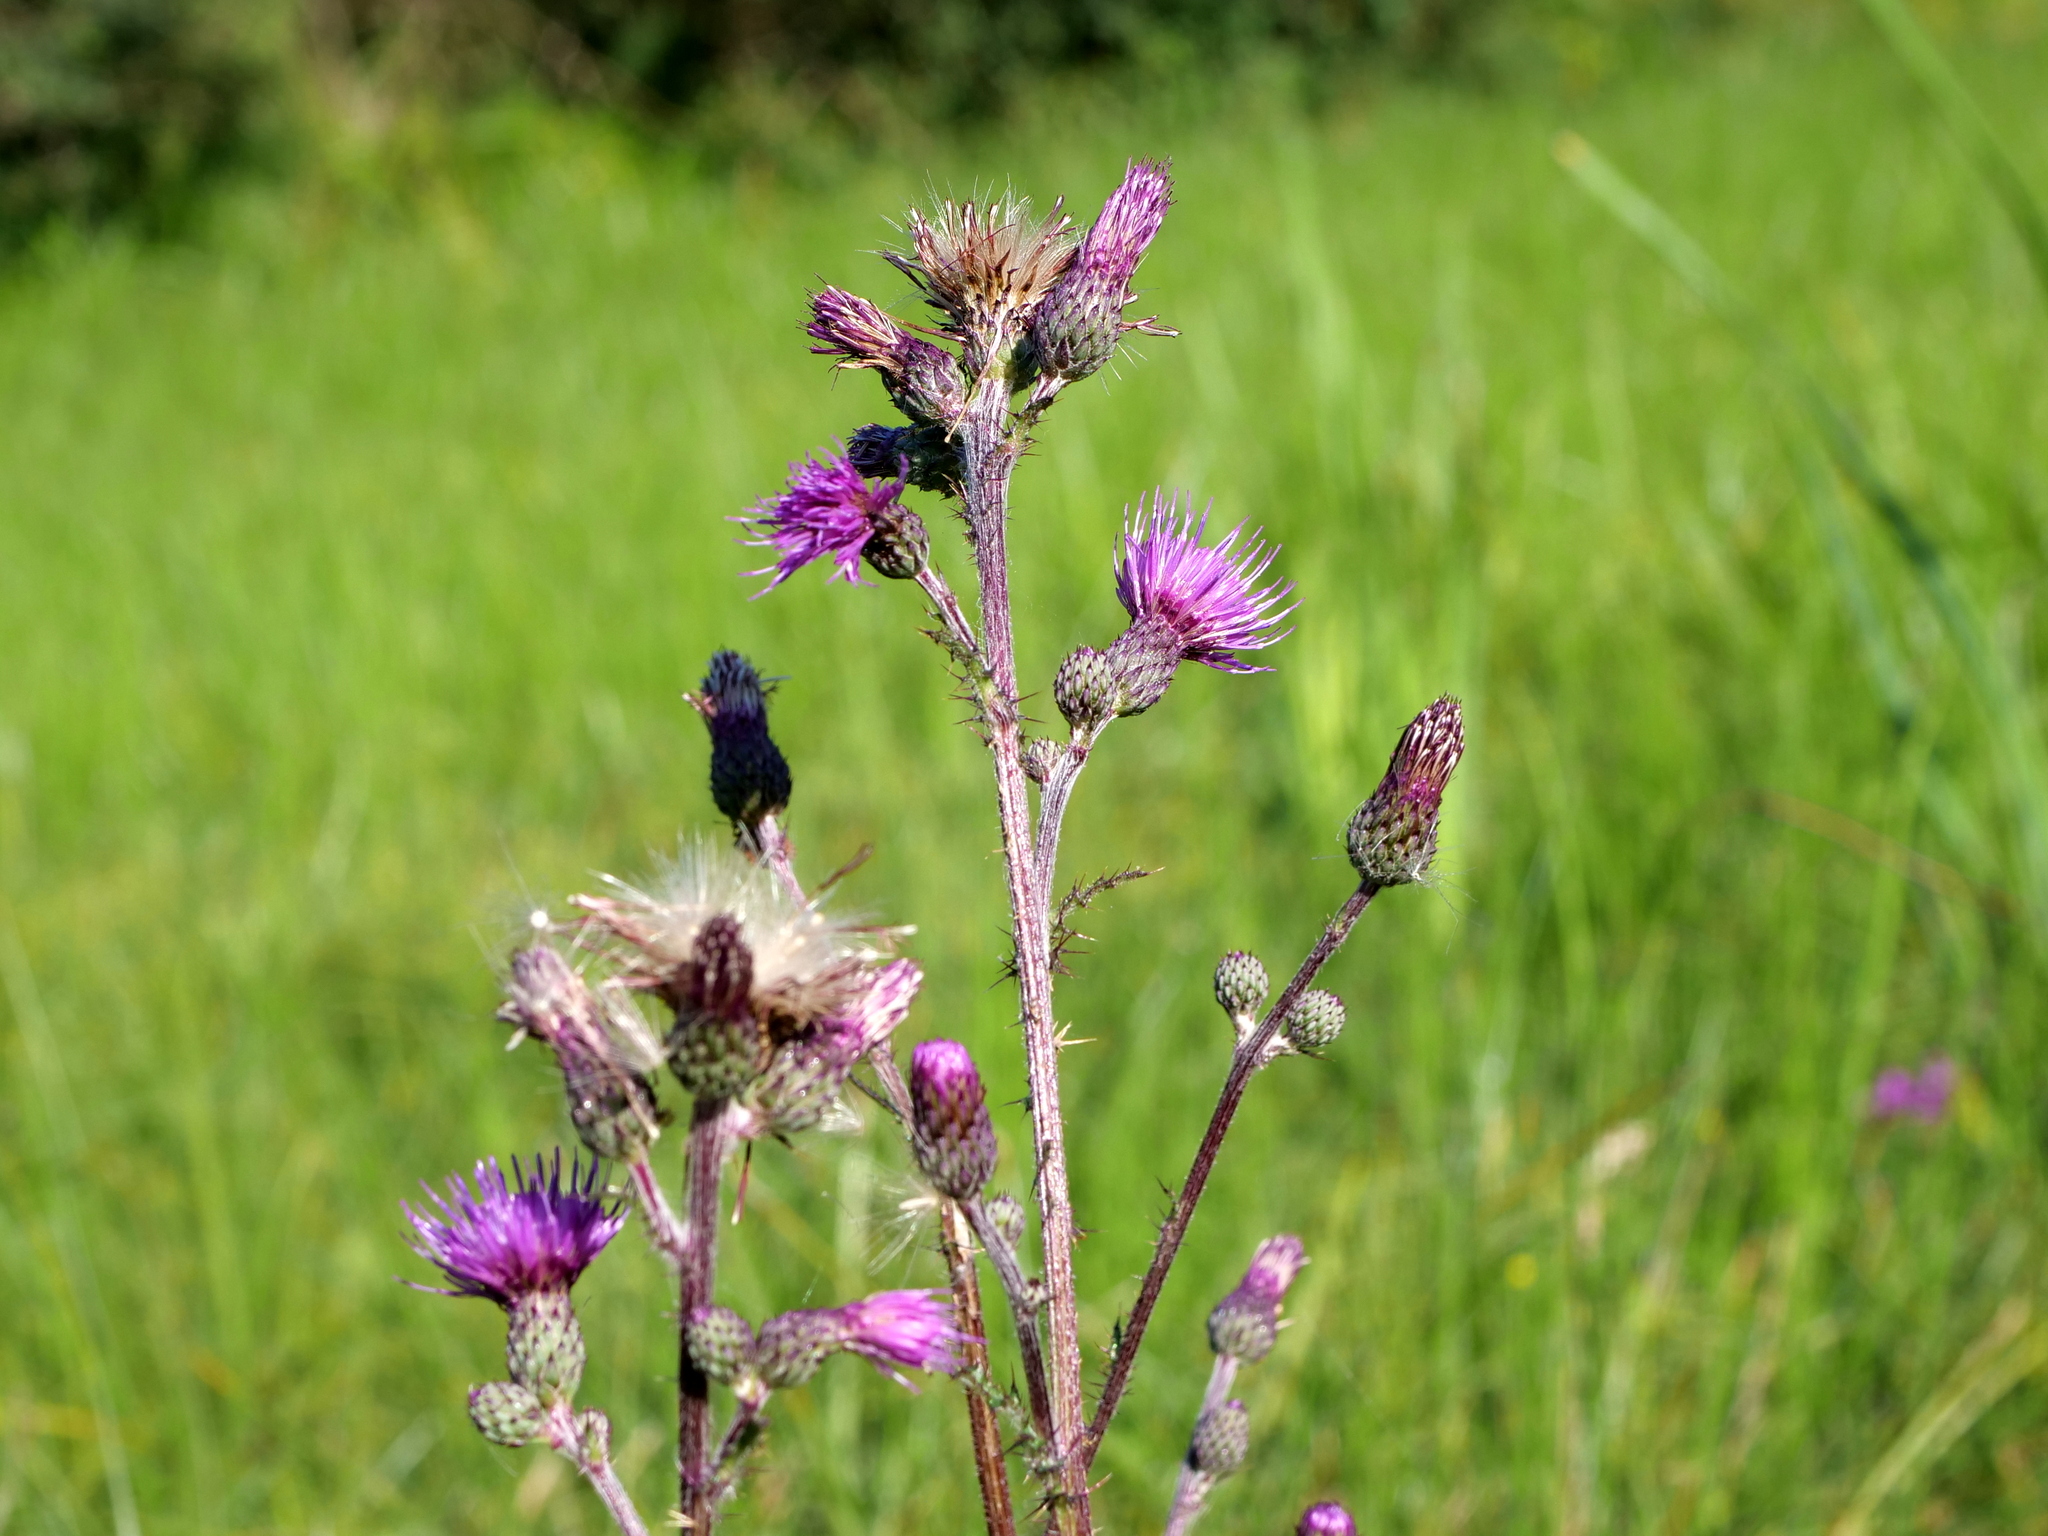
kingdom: Plantae
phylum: Tracheophyta
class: Magnoliopsida
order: Asterales
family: Asteraceae
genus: Cirsium
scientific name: Cirsium palustre
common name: Marsh thistle
